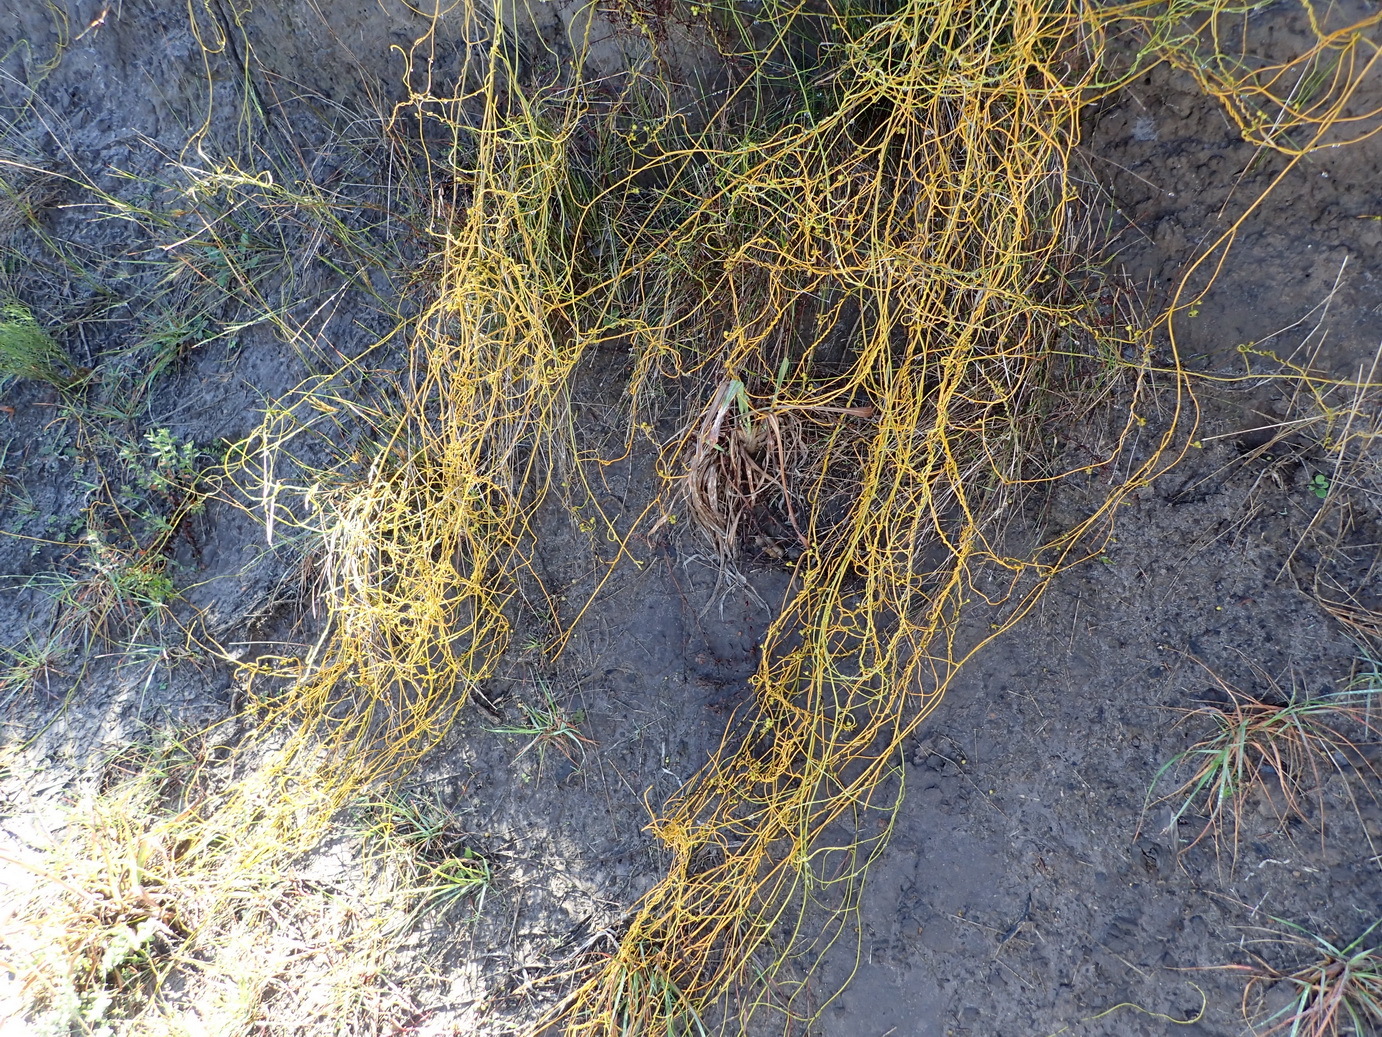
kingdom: Plantae
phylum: Tracheophyta
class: Magnoliopsida
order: Laurales
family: Lauraceae
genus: Cassytha
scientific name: Cassytha ciliolata
